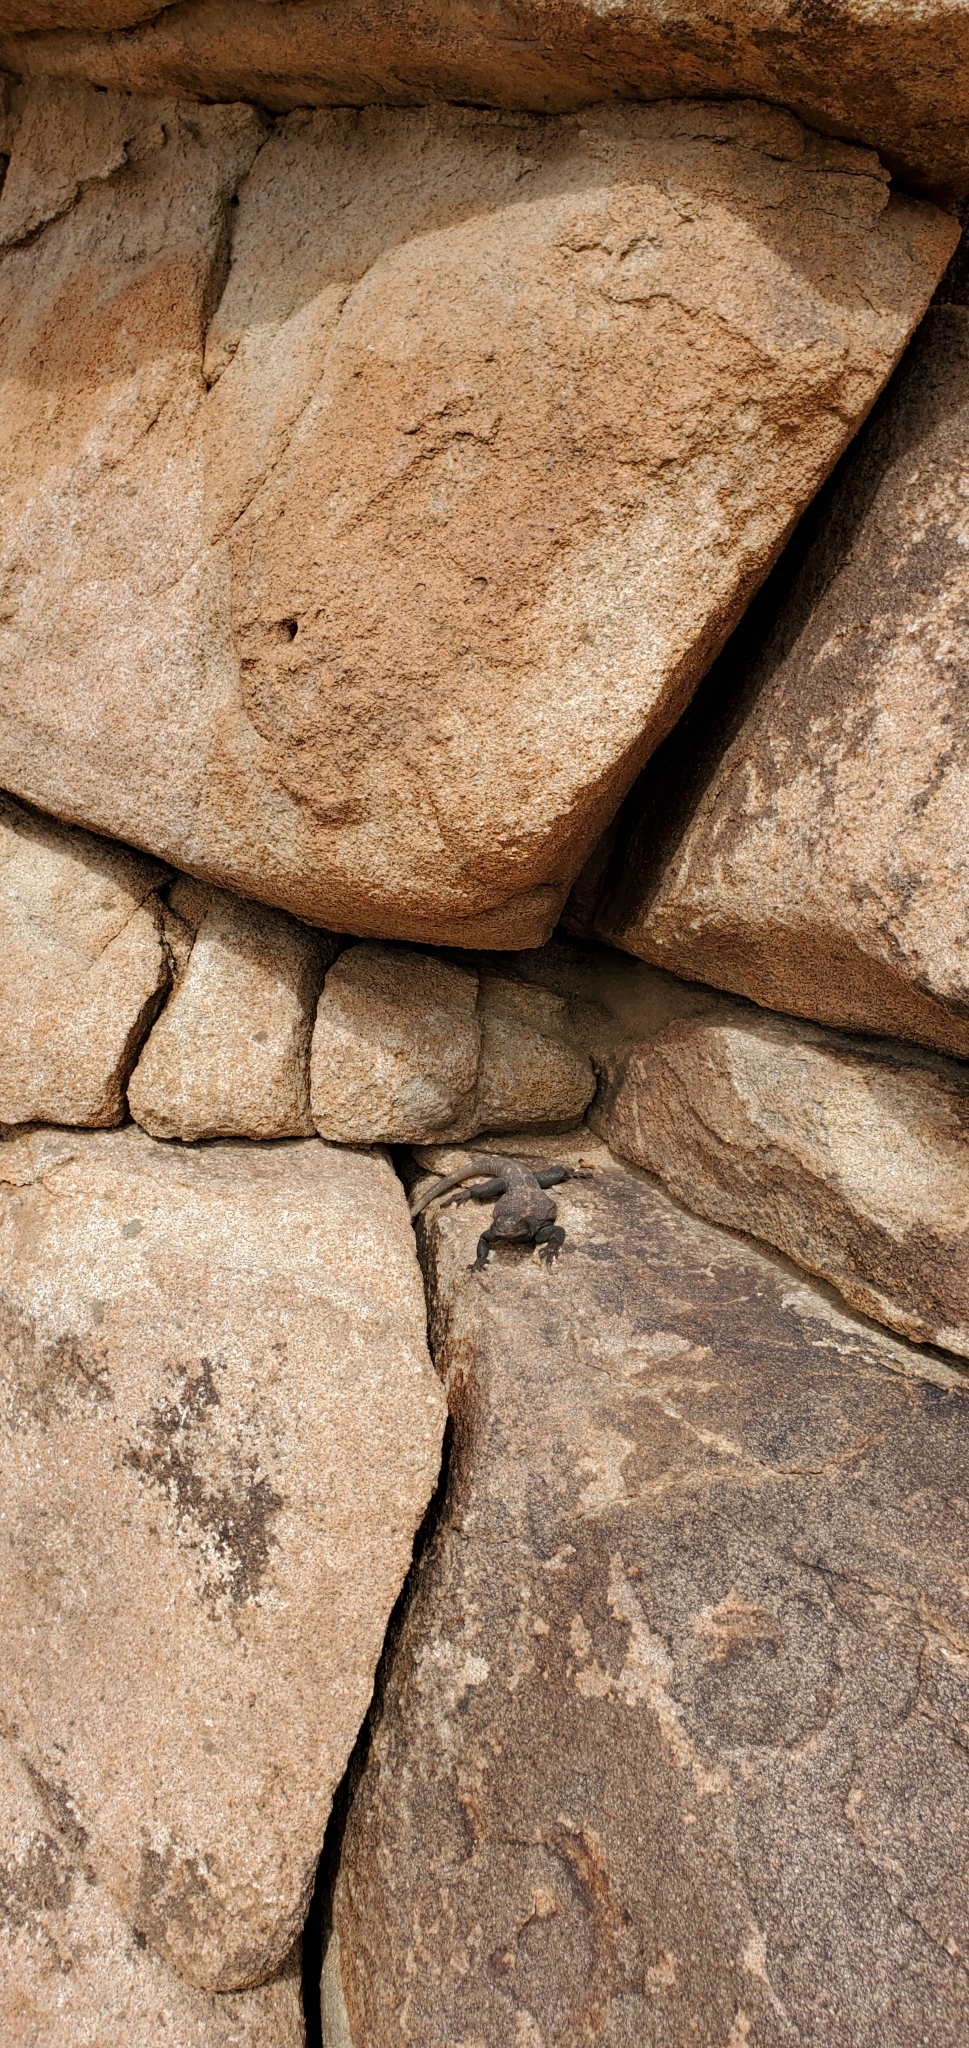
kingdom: Animalia
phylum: Chordata
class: Squamata
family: Iguanidae
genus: Sauromalus
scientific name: Sauromalus ater
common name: Northern chuckwalla
